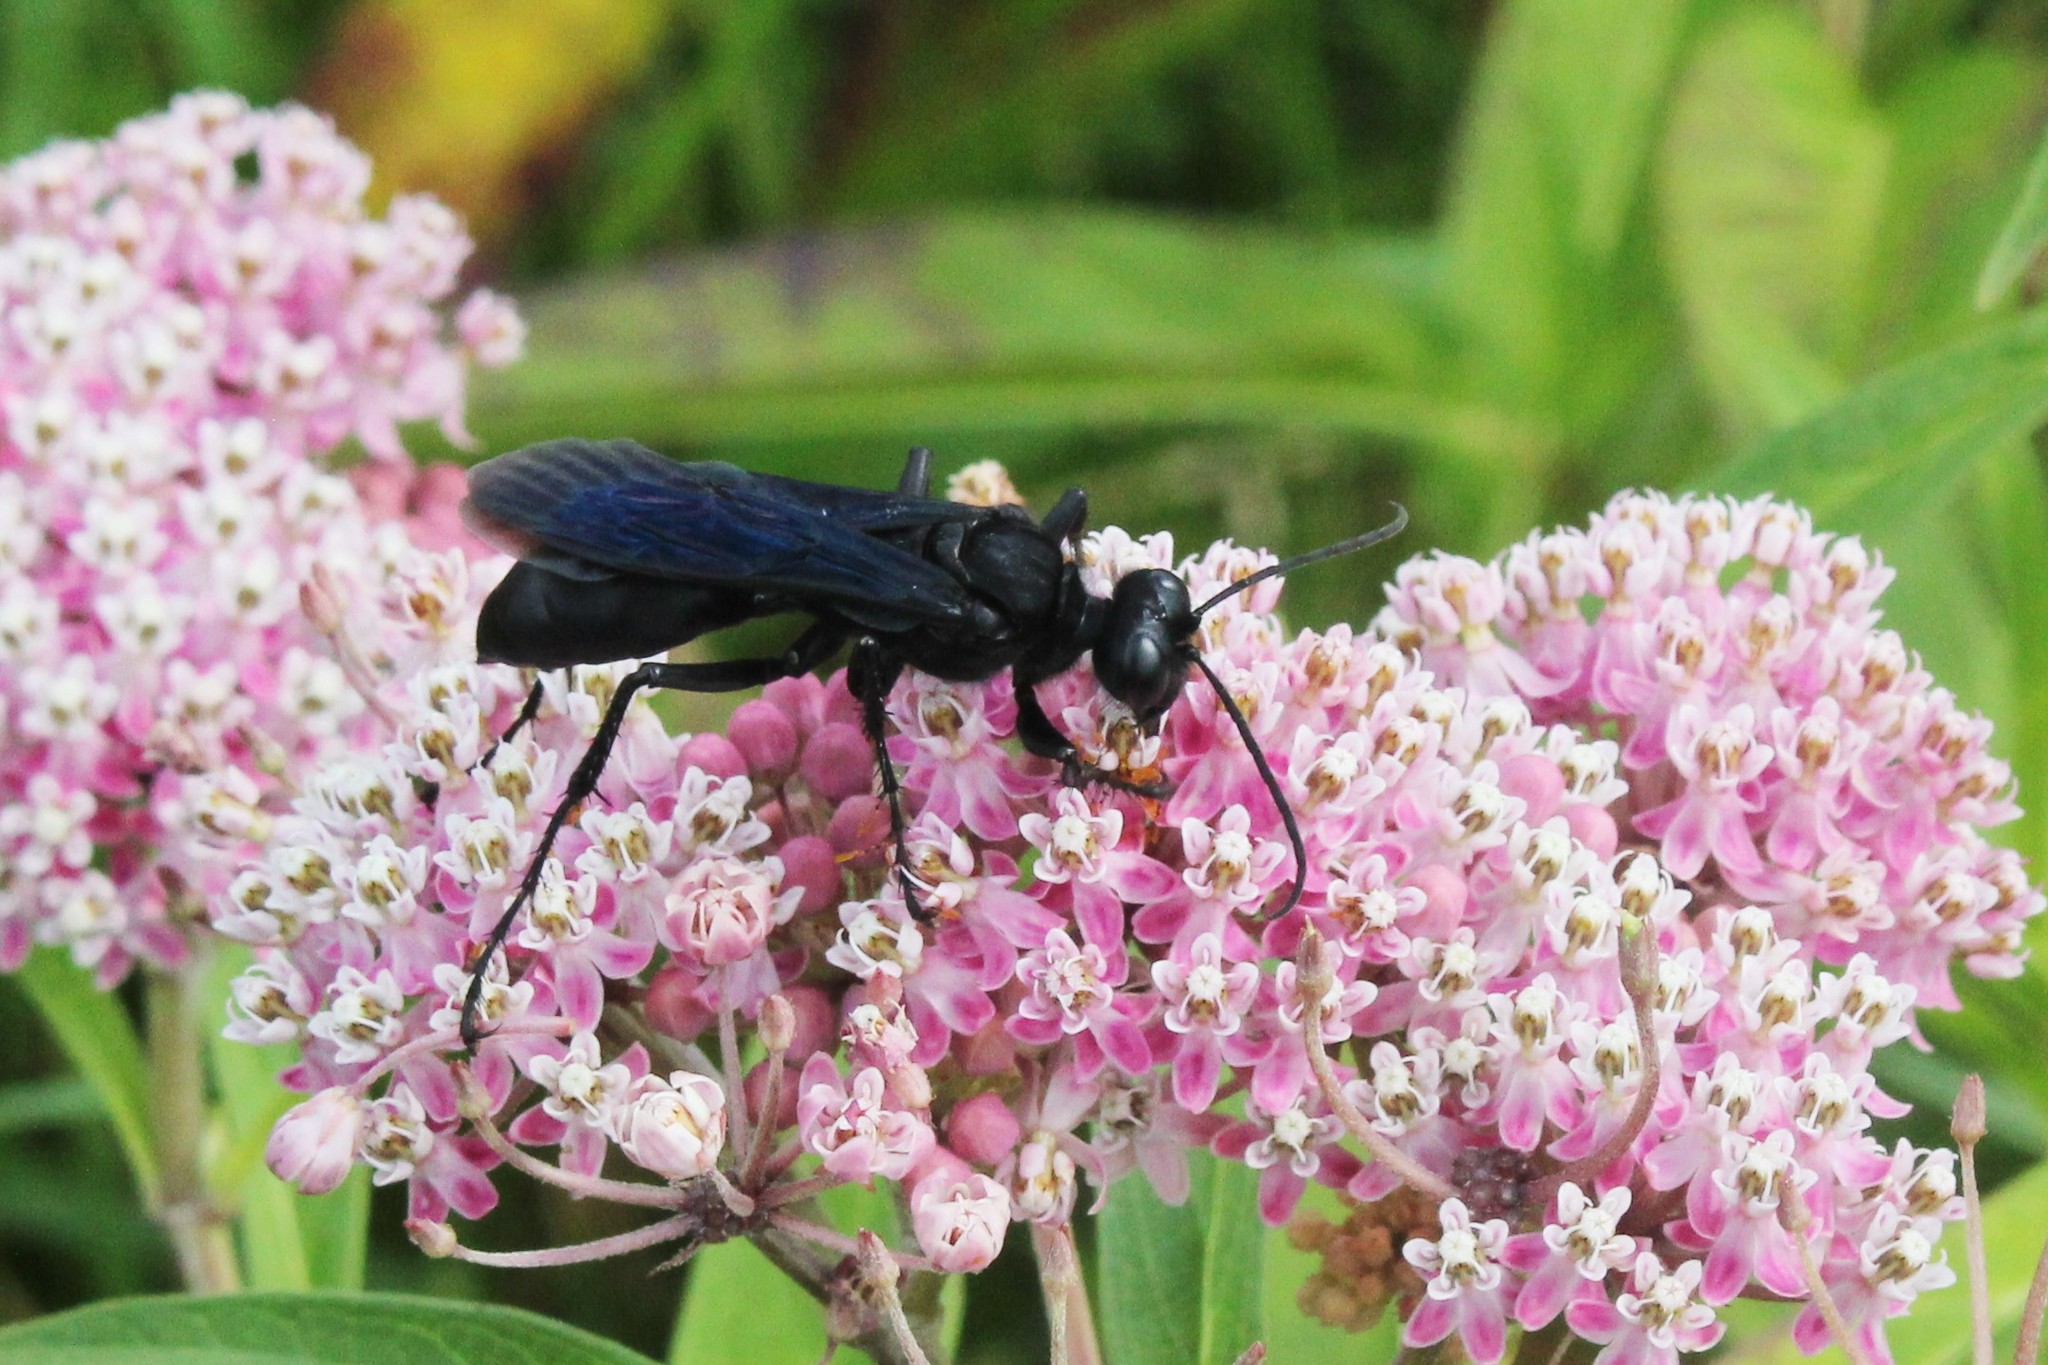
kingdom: Animalia
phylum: Arthropoda
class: Insecta
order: Hymenoptera
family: Sphecidae
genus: Sphex
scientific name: Sphex pensylvanicus
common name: Great black digger wasp
